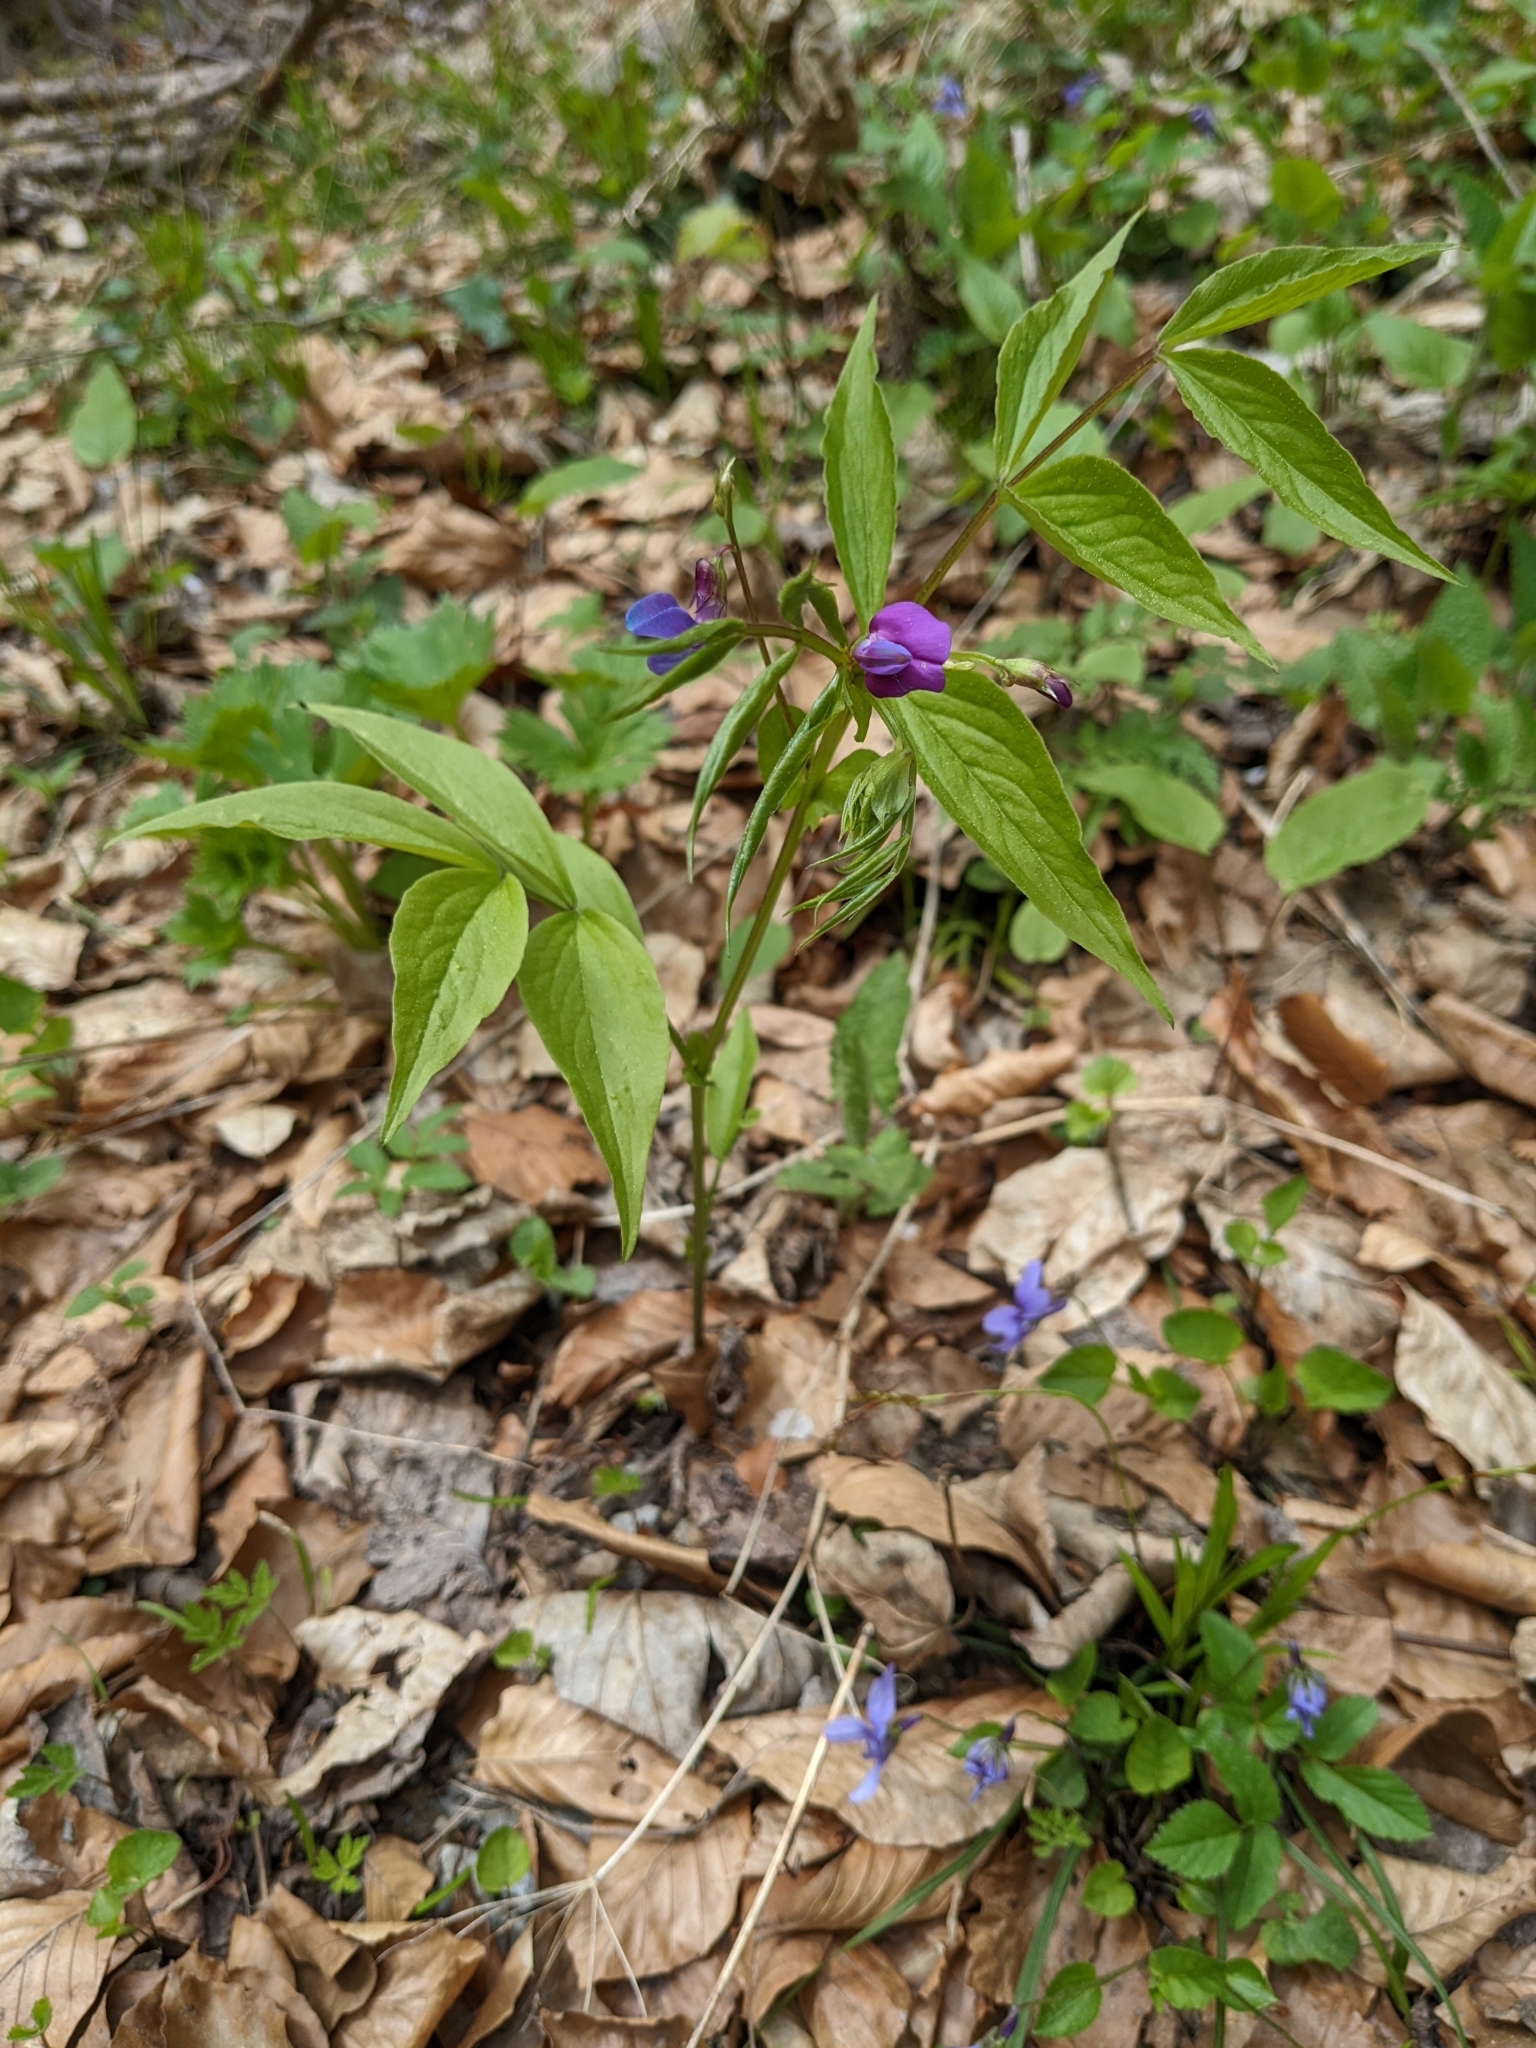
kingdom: Plantae
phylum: Tracheophyta
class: Magnoliopsida
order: Fabales
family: Fabaceae
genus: Lathyrus
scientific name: Lathyrus vernus
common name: Spring pea
